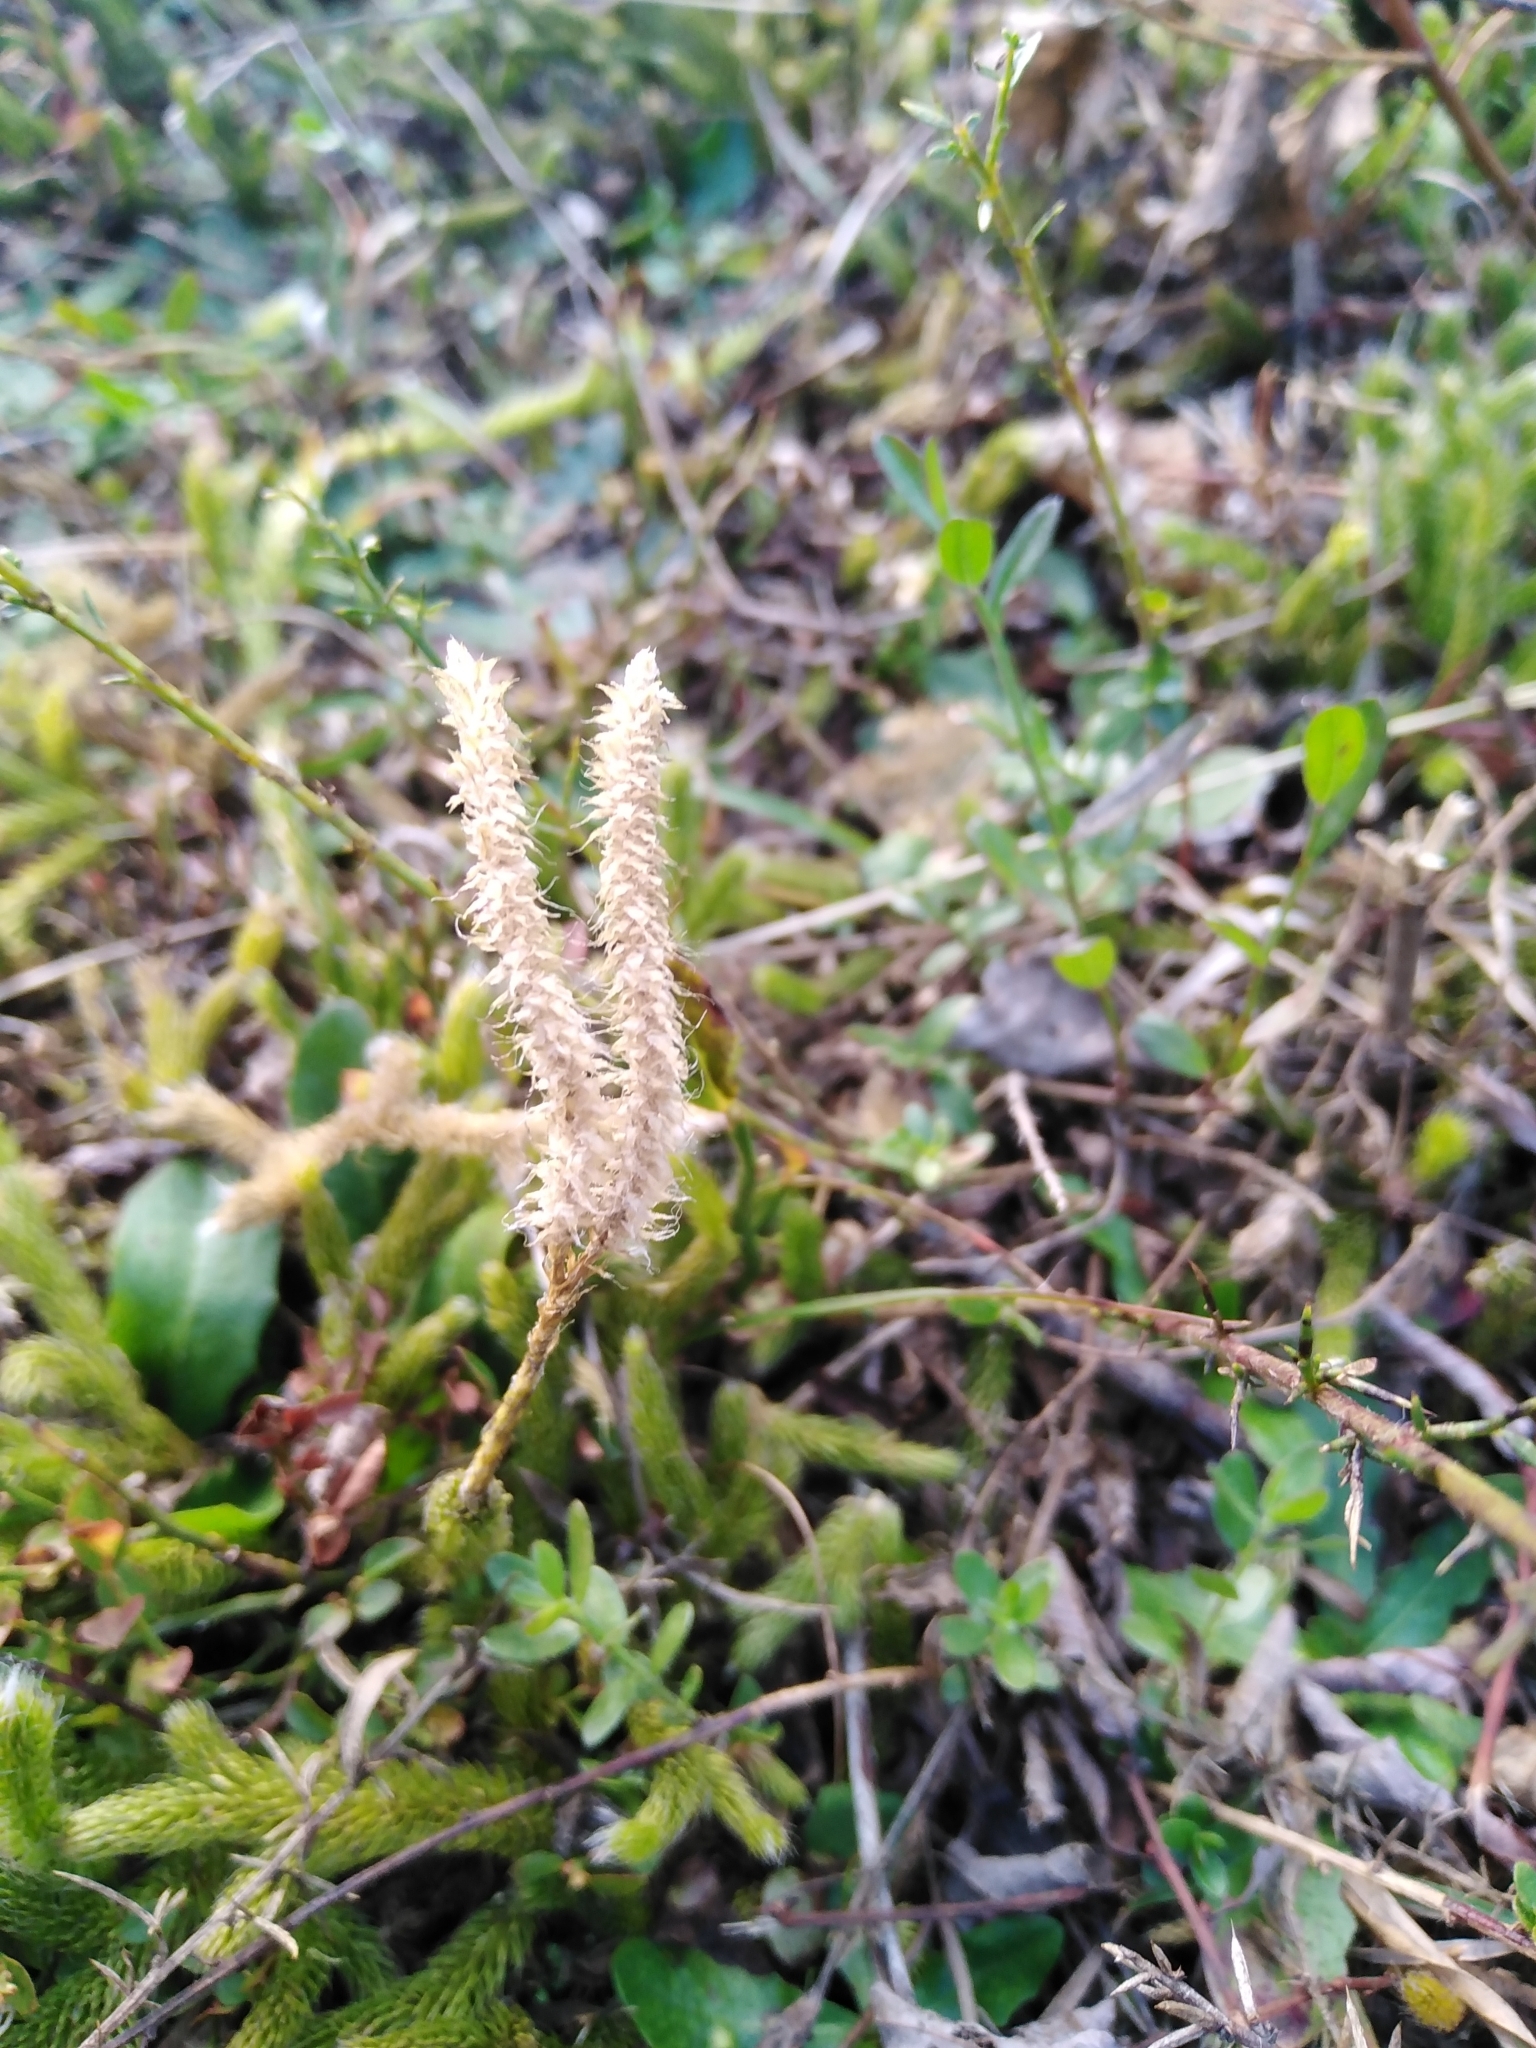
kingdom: Plantae
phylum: Tracheophyta
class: Lycopodiopsida
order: Lycopodiales
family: Lycopodiaceae
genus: Lycopodium
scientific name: Lycopodium clavatum
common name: Stag's-horn clubmoss
